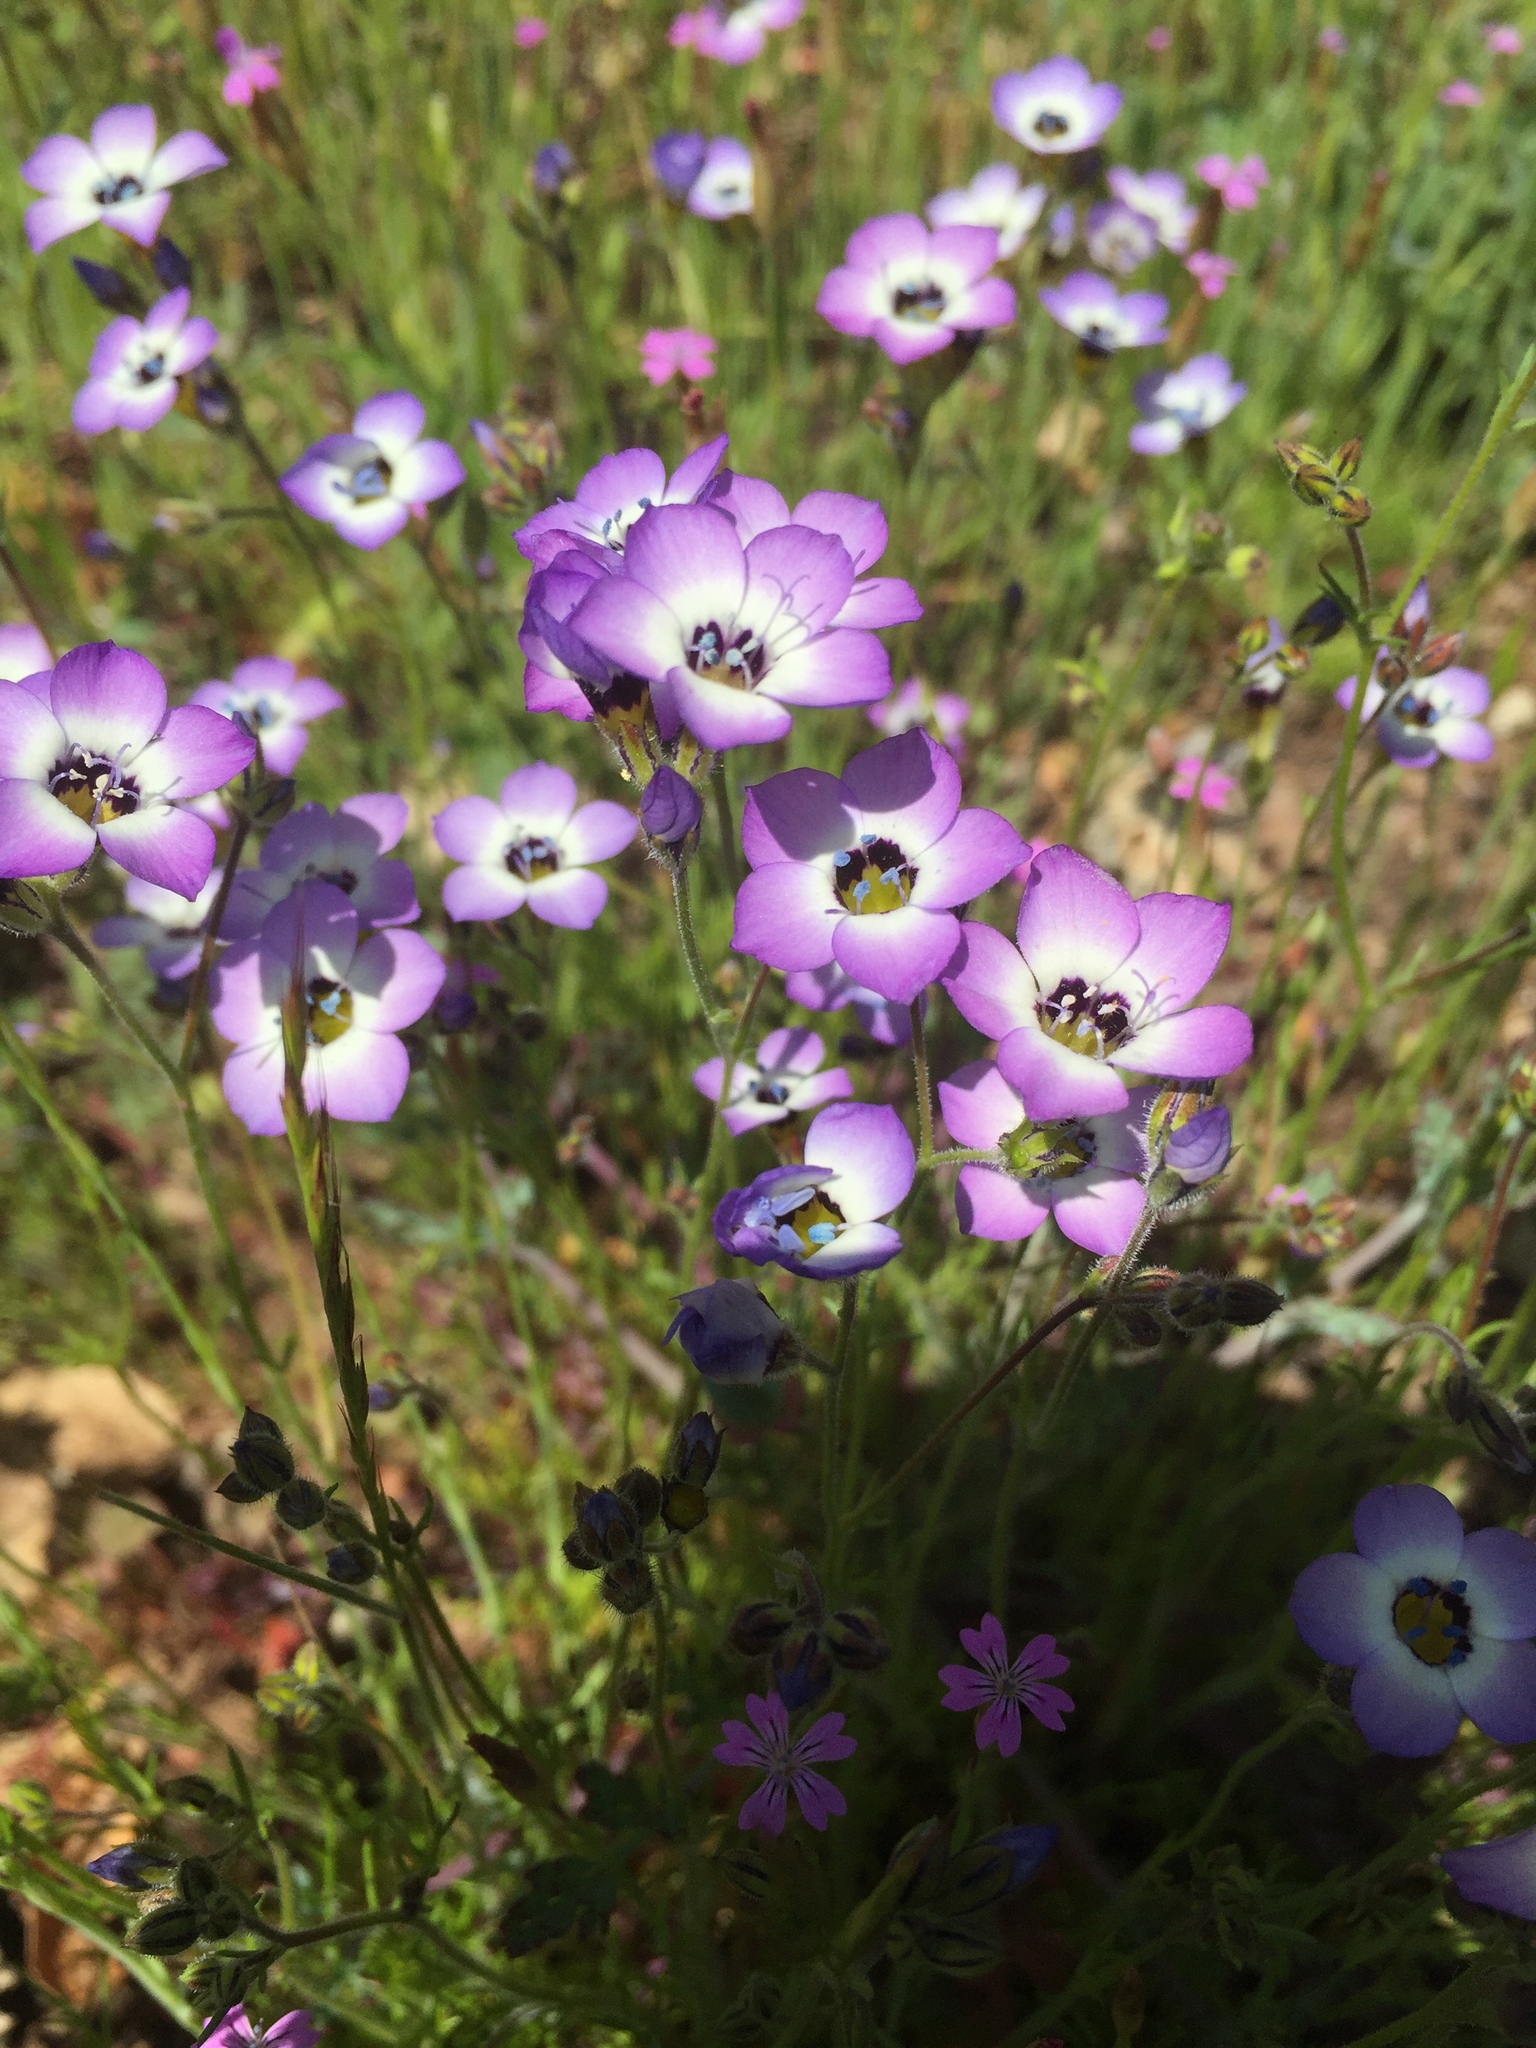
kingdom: Plantae
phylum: Tracheophyta
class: Magnoliopsida
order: Ericales
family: Polemoniaceae
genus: Gilia
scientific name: Gilia tricolor
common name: Bird's-eyes
